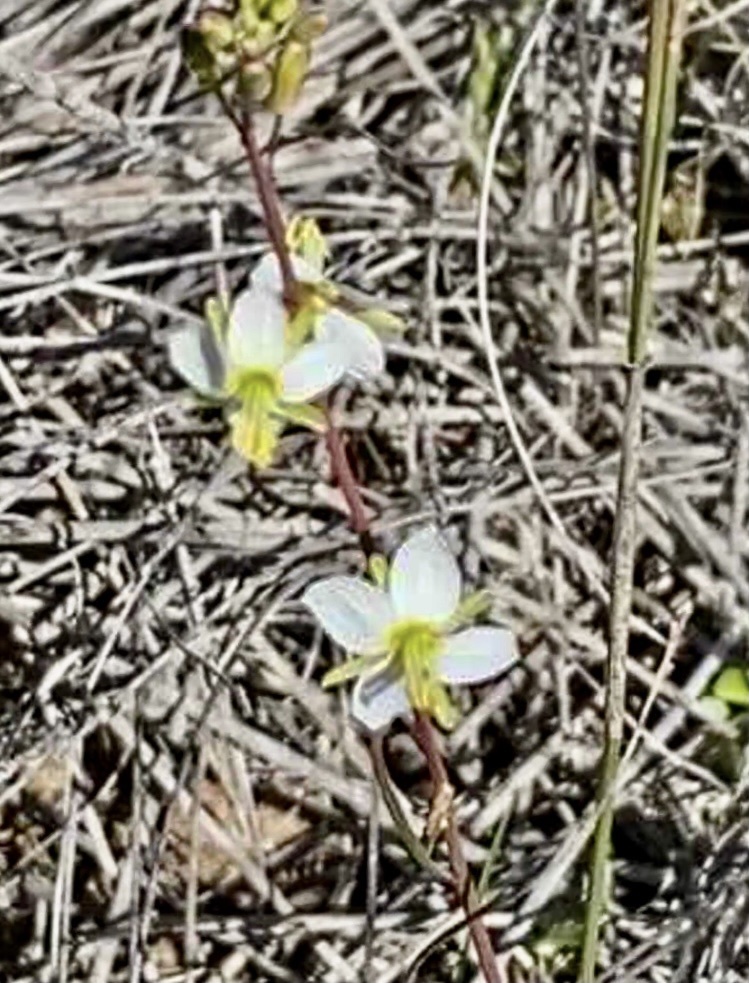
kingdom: Plantae
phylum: Tracheophyta
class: Magnoliopsida
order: Brassicales
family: Brassicaceae
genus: Heliophila
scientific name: Heliophila linearis
